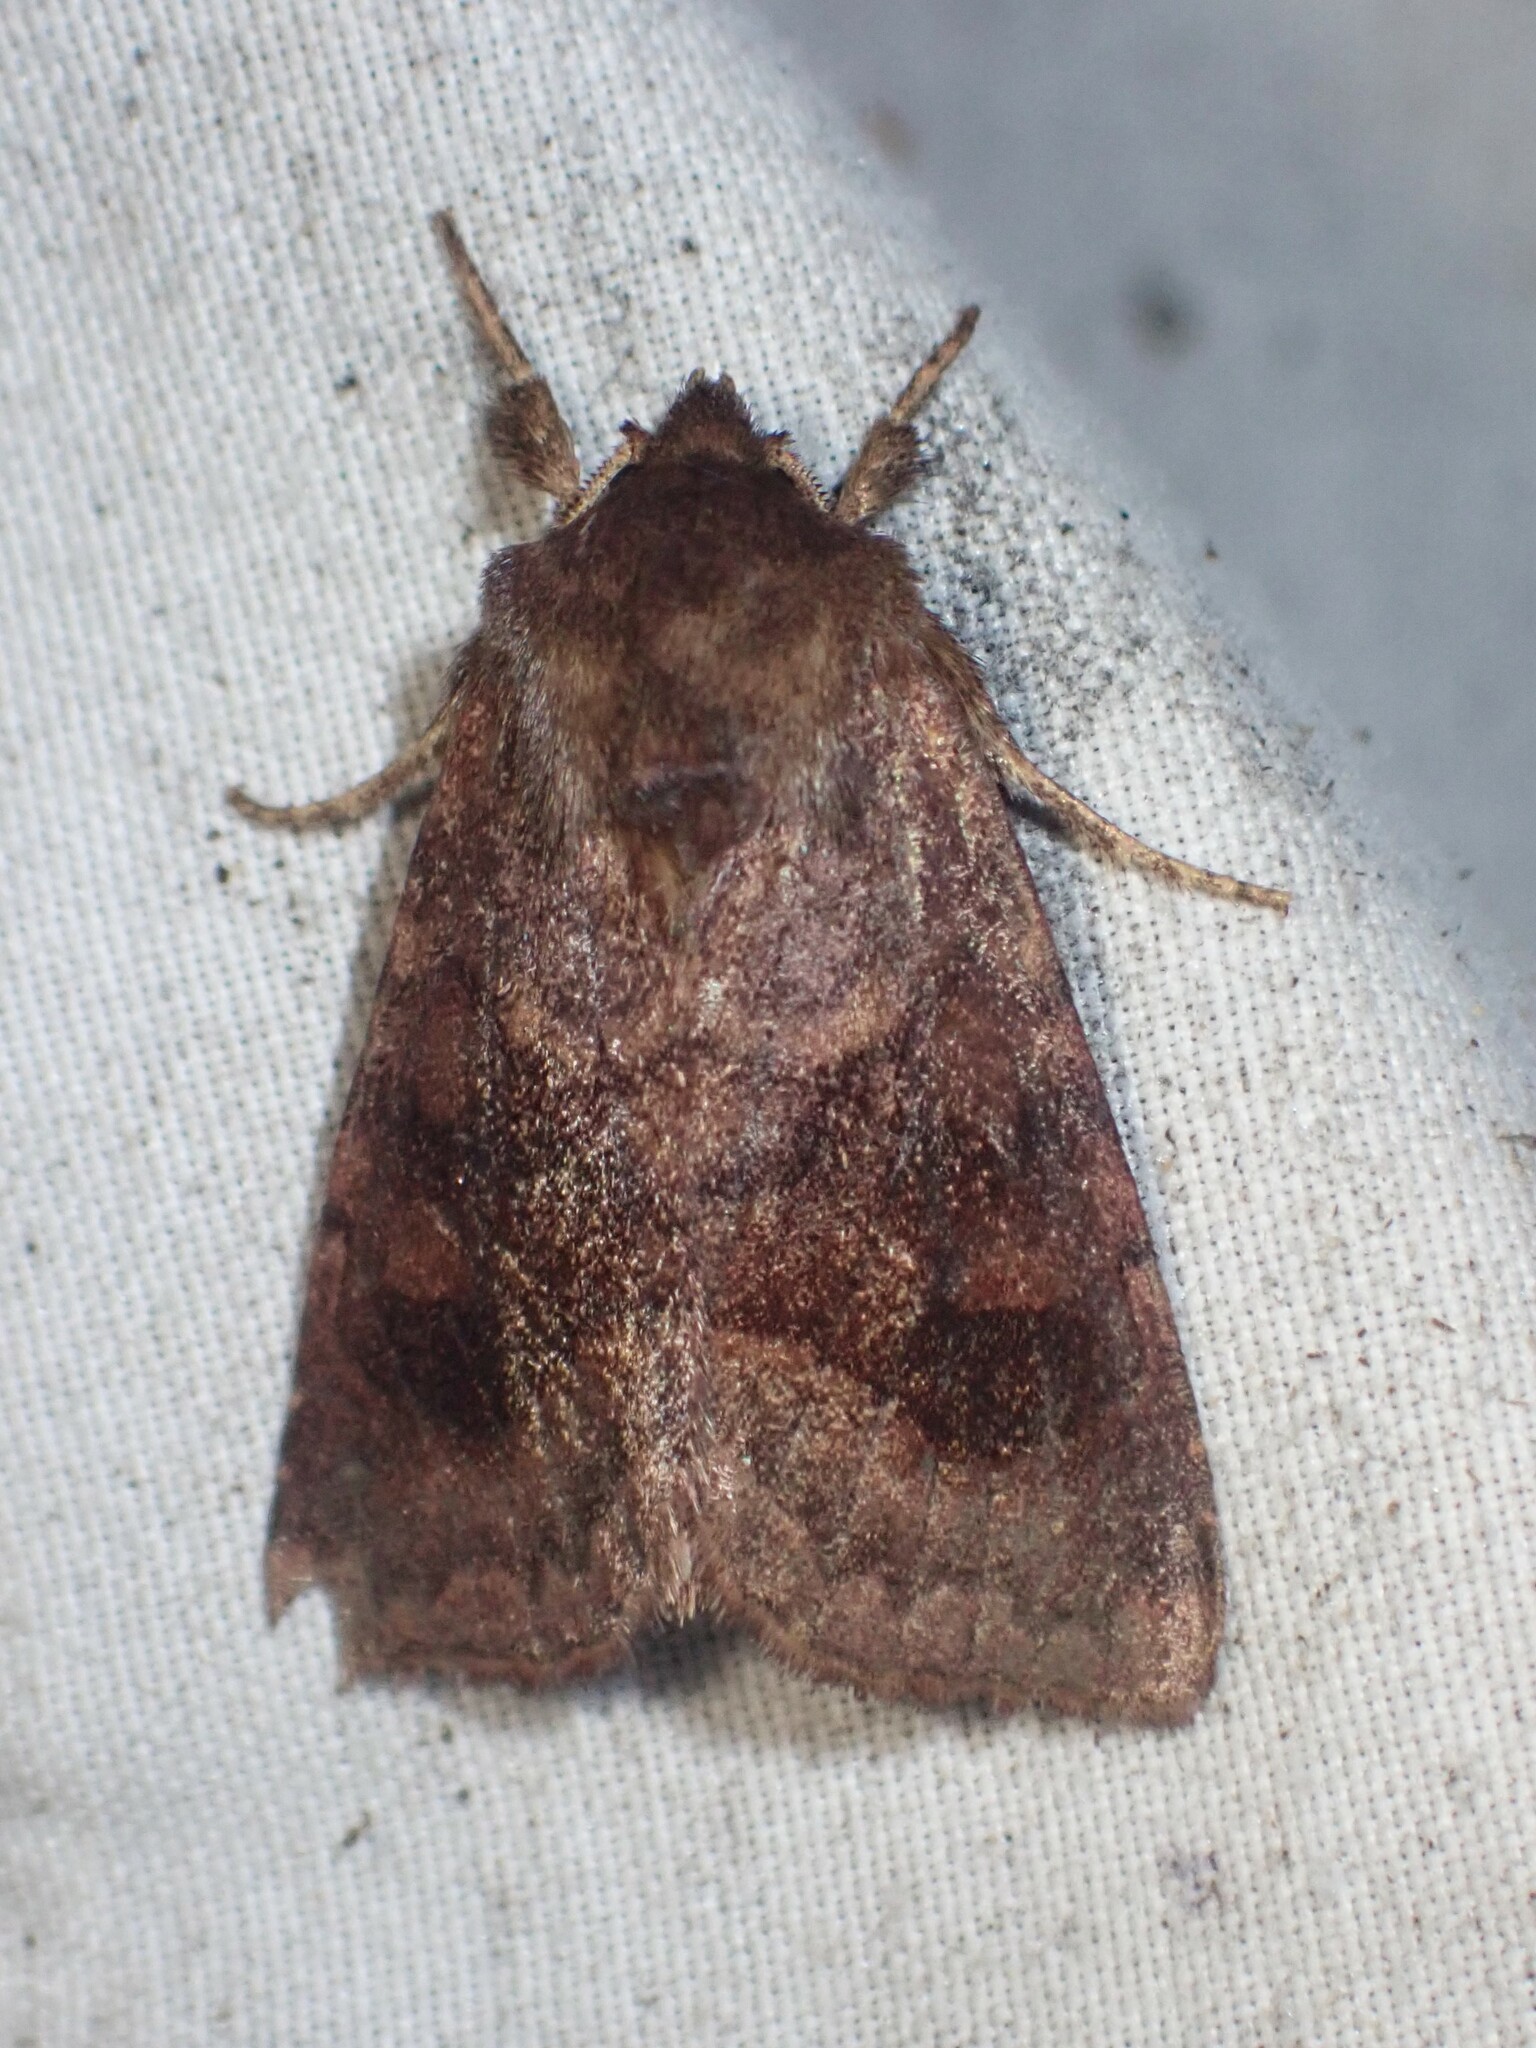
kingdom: Animalia
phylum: Arthropoda
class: Insecta
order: Lepidoptera
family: Noctuidae
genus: Nephelodes
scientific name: Nephelodes minians
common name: Bronzed cutworm
